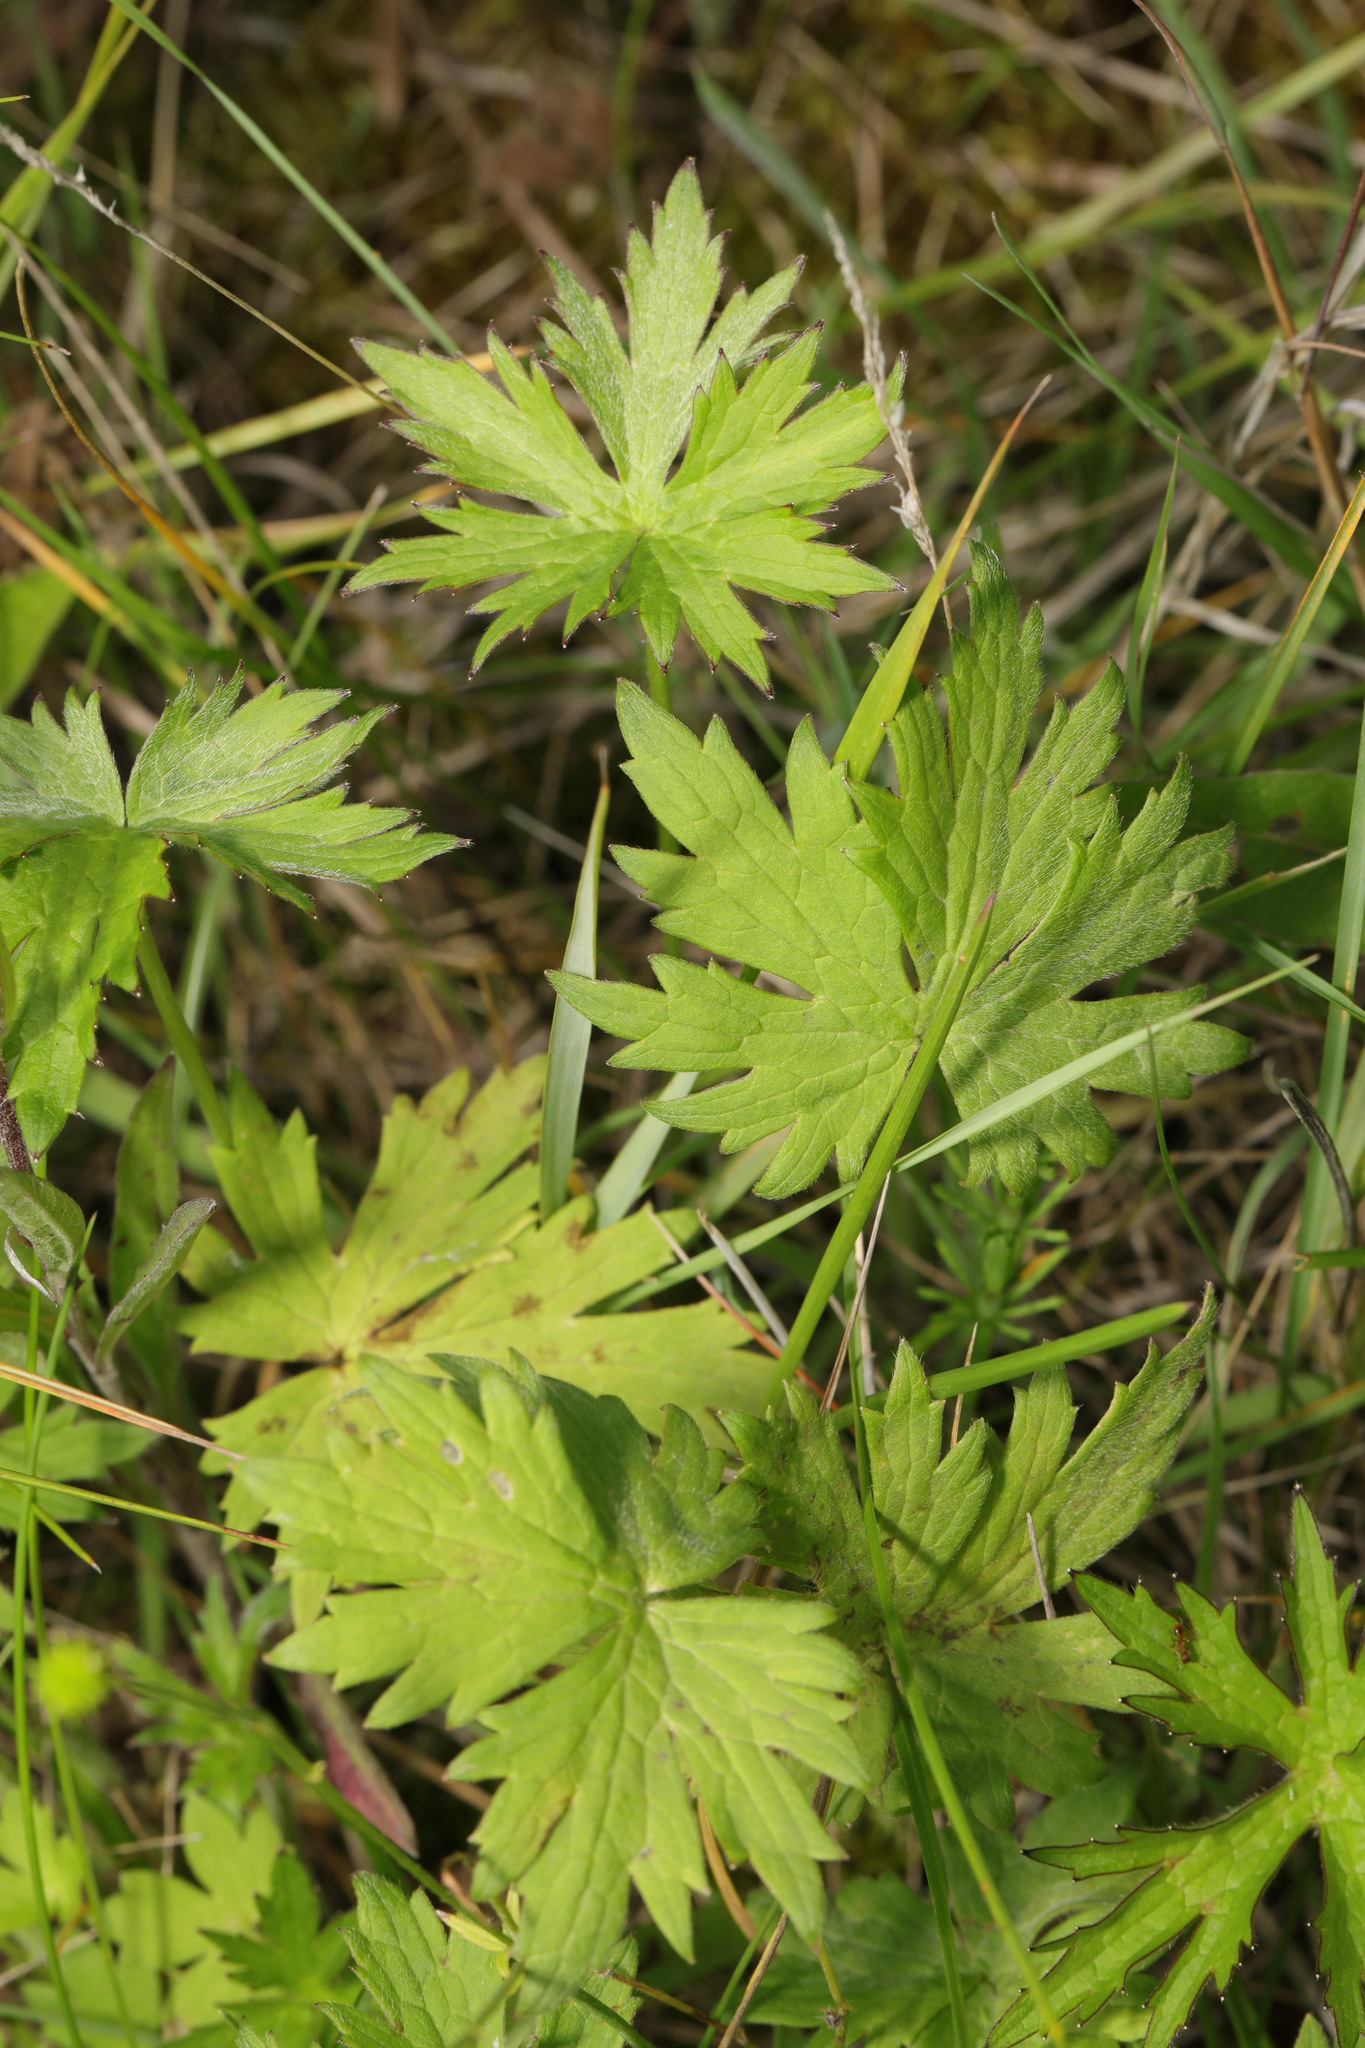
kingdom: Plantae
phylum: Tracheophyta
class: Magnoliopsida
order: Ranunculales
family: Ranunculaceae
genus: Ranunculus
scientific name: Ranunculus acris
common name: Meadow buttercup
